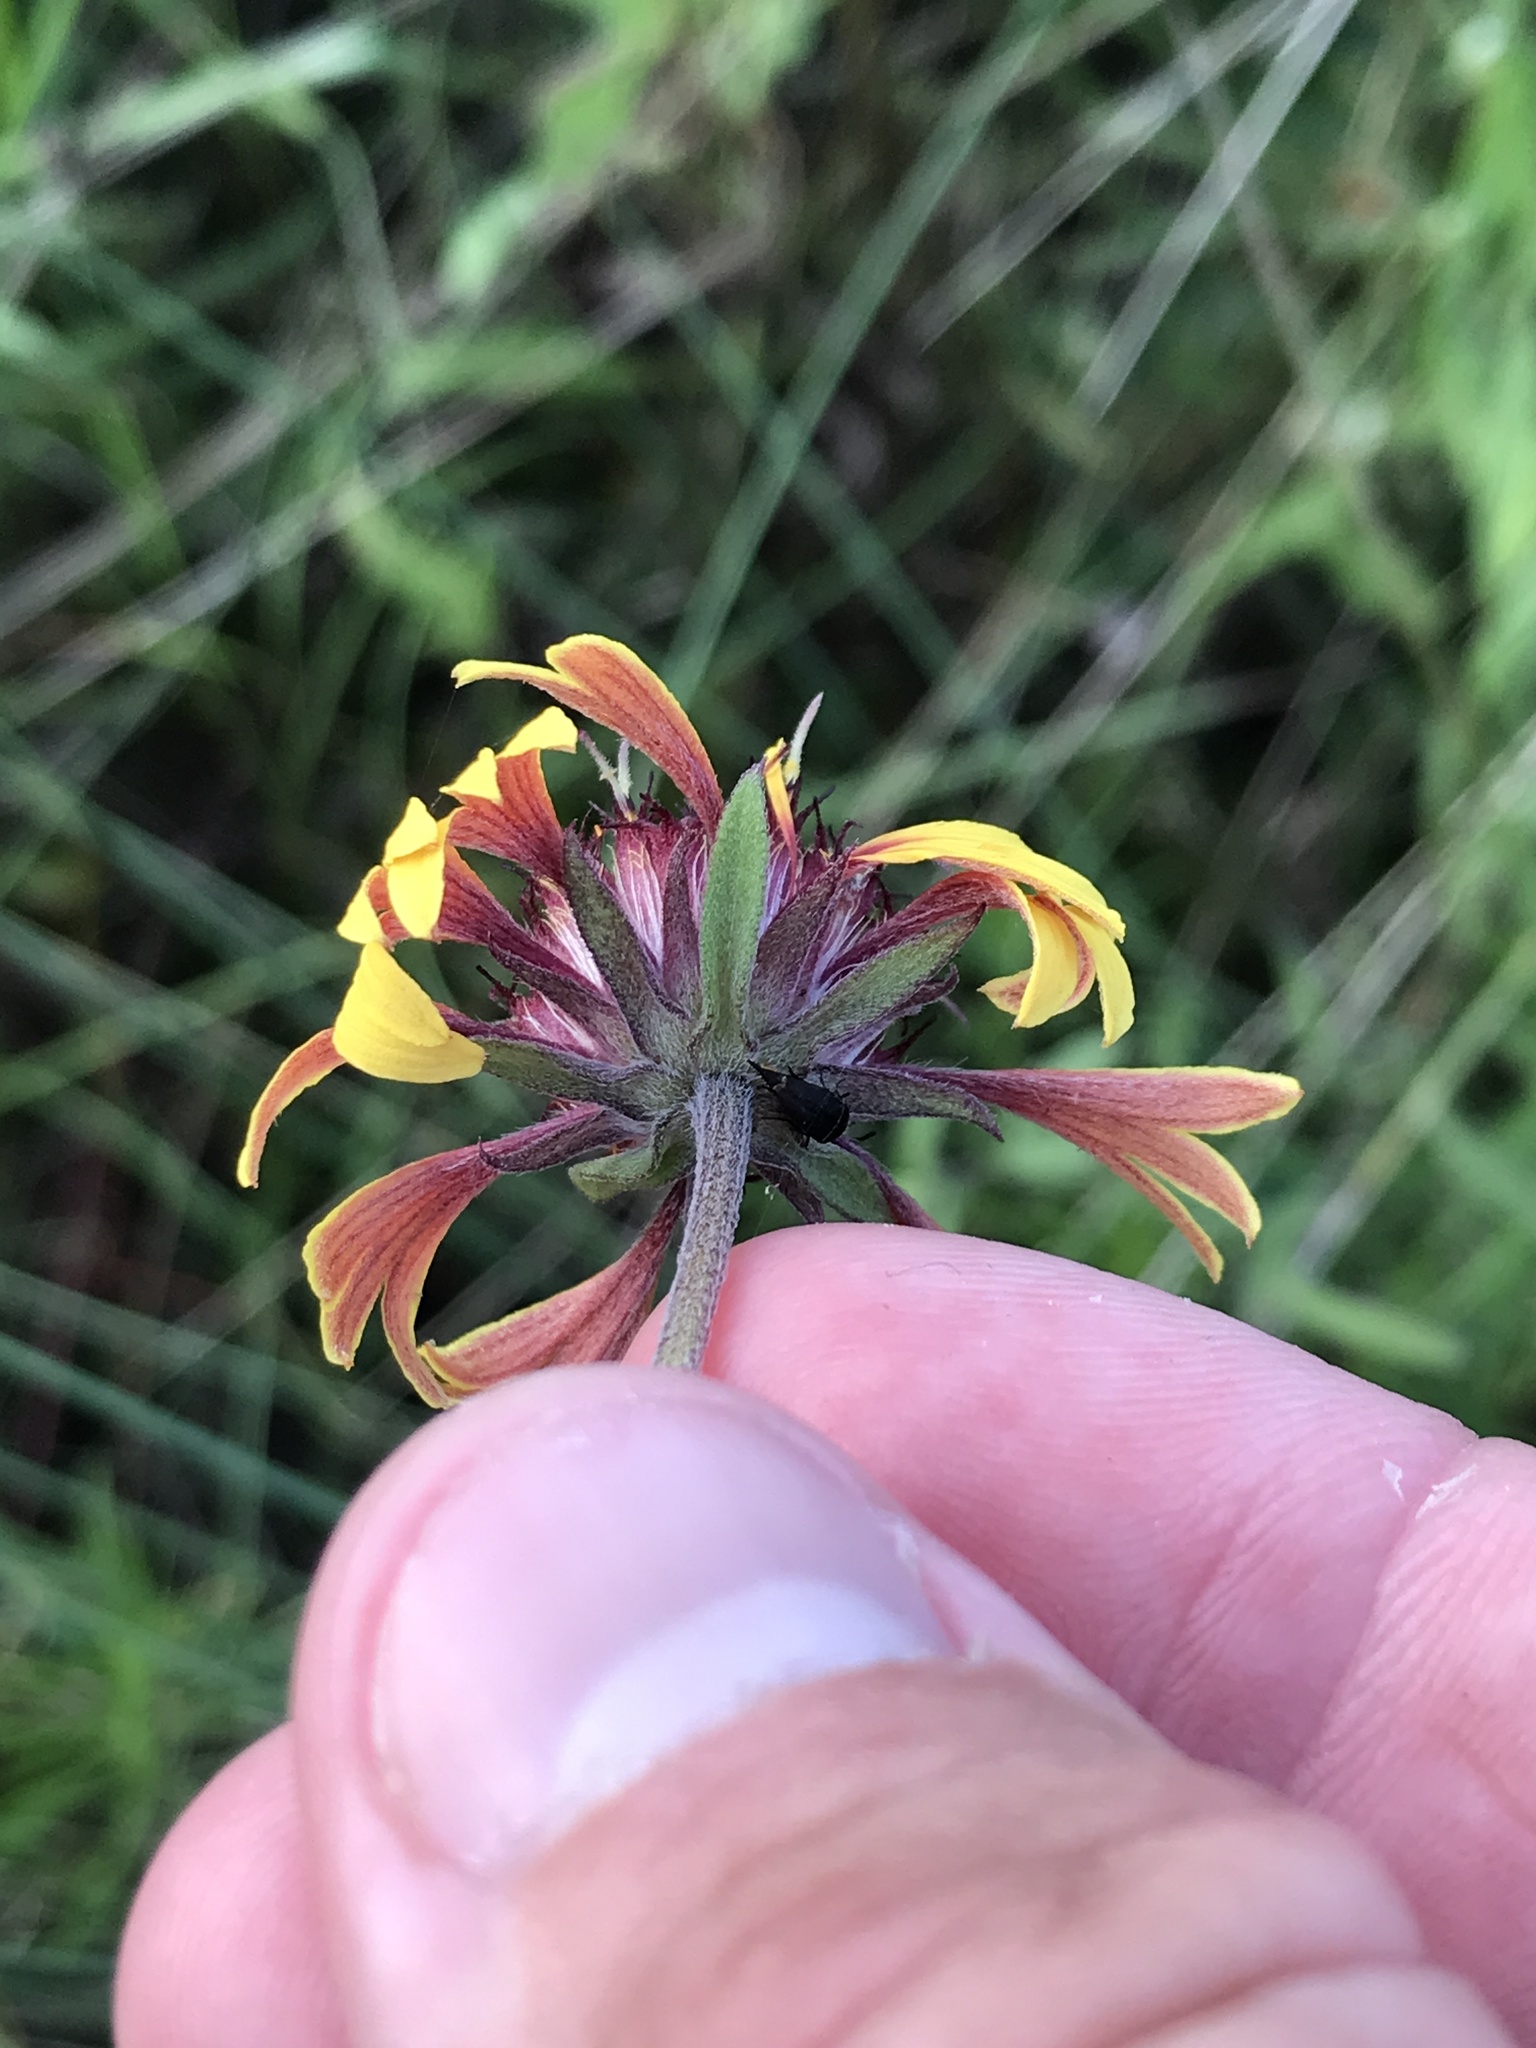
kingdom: Plantae
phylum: Tracheophyta
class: Magnoliopsida
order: Asterales
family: Asteraceae
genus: Gaillardia
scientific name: Gaillardia aestivalis
